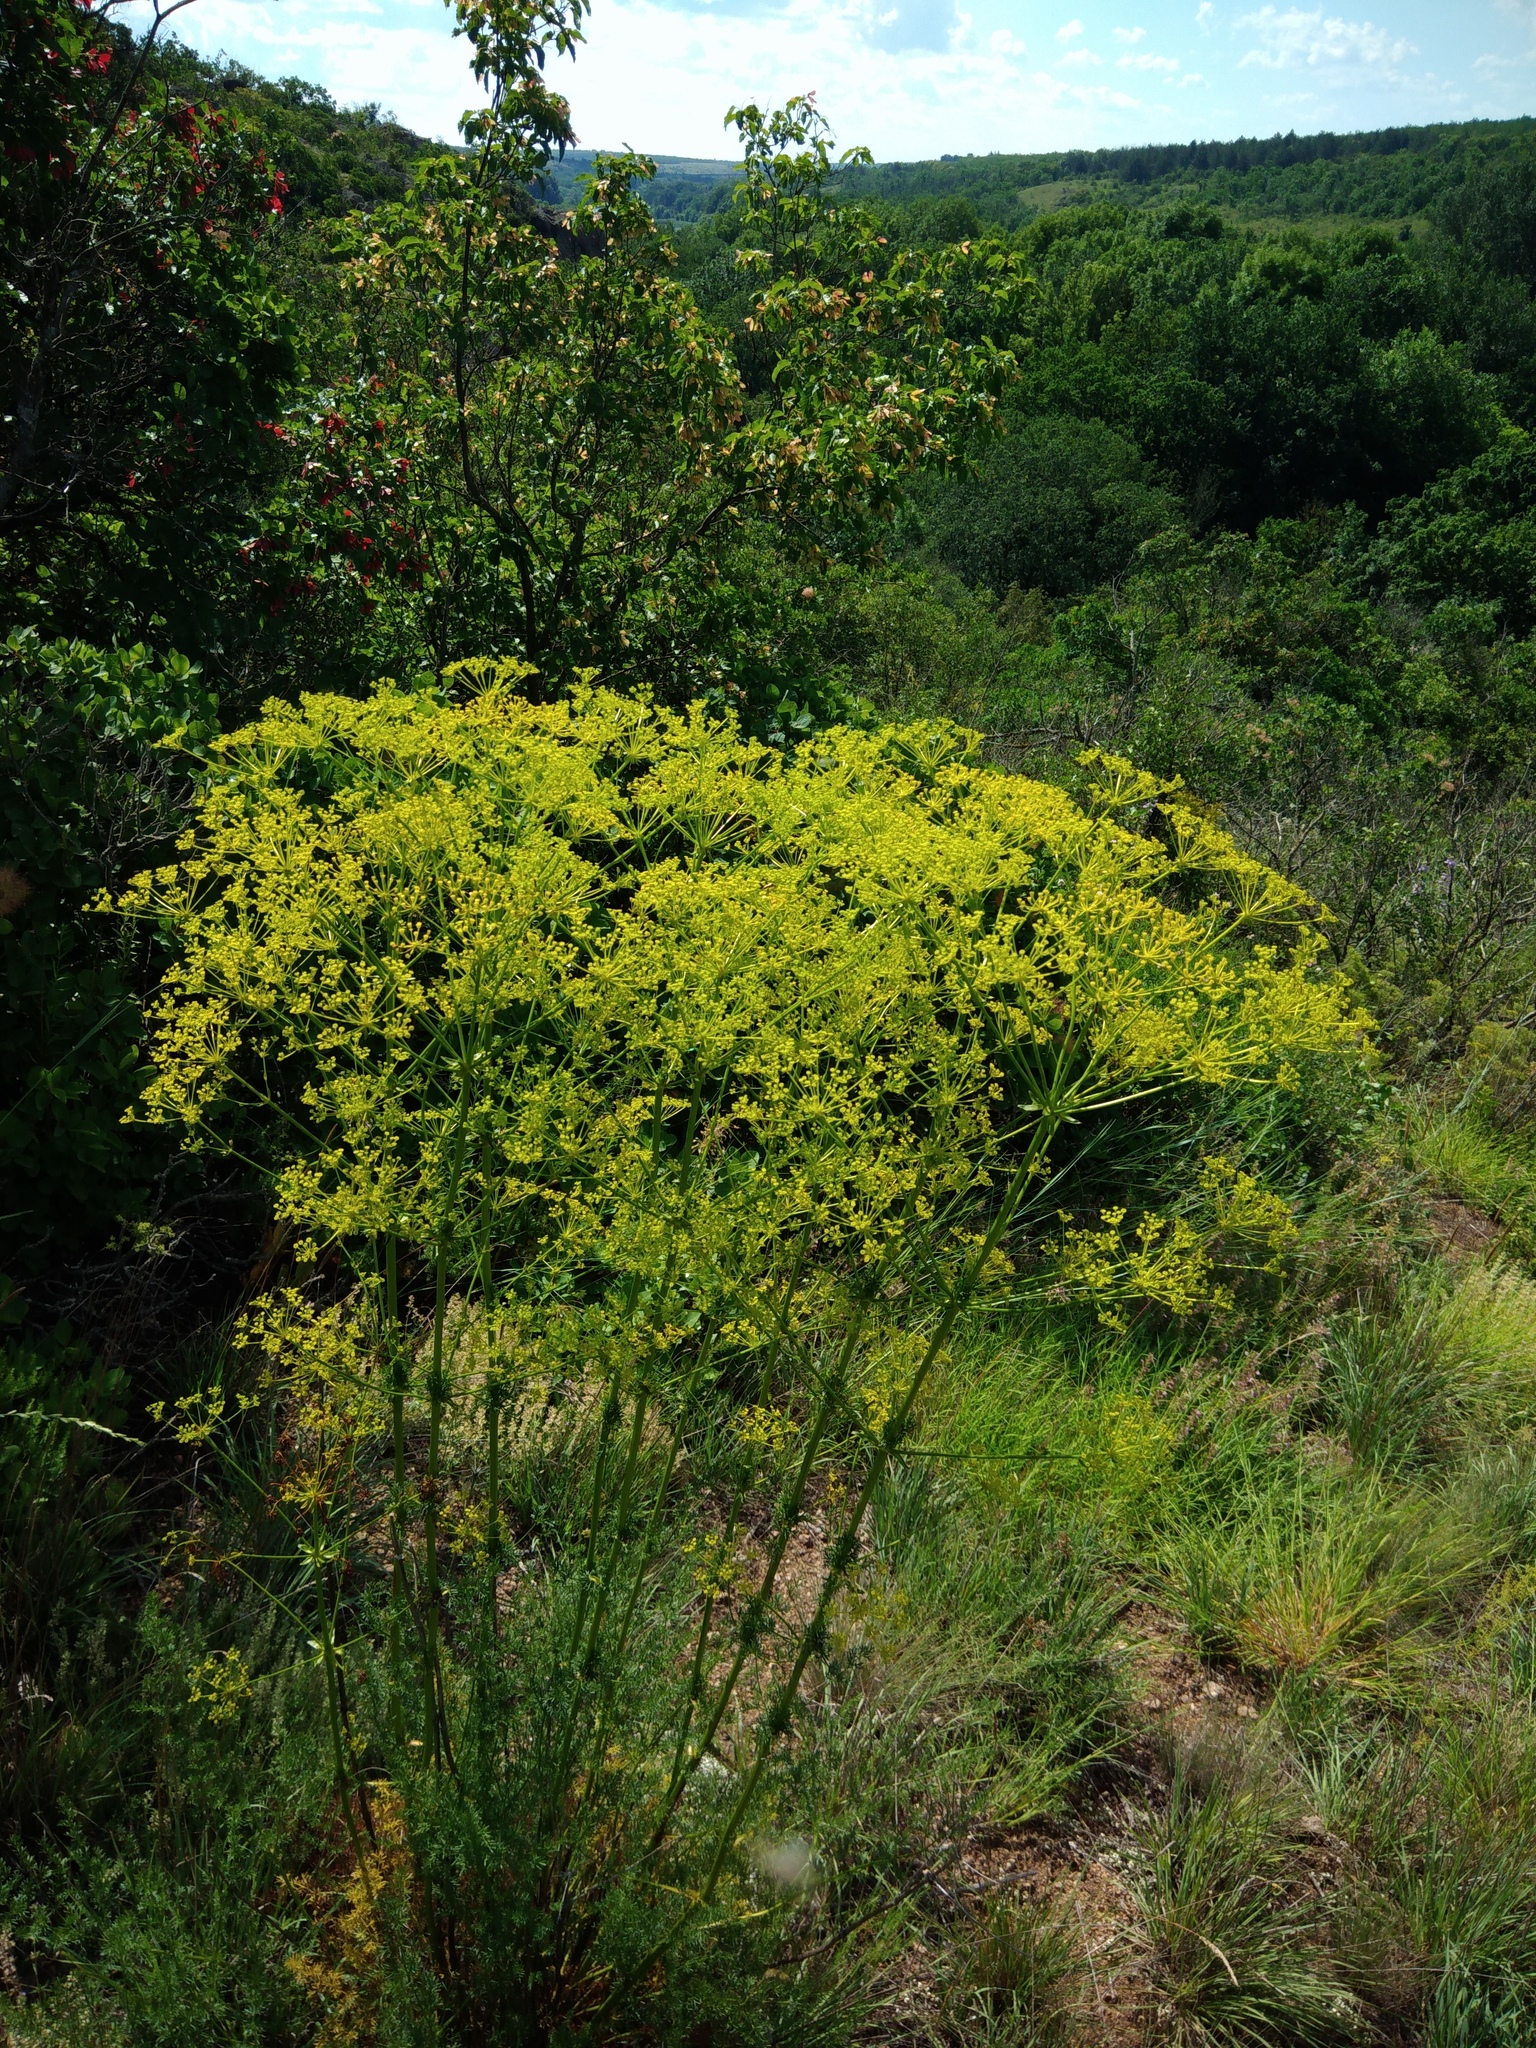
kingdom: Plantae
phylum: Tracheophyta
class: Magnoliopsida
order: Apiales
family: Apiaceae
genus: Ferulago
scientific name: Ferulago galbanifera
